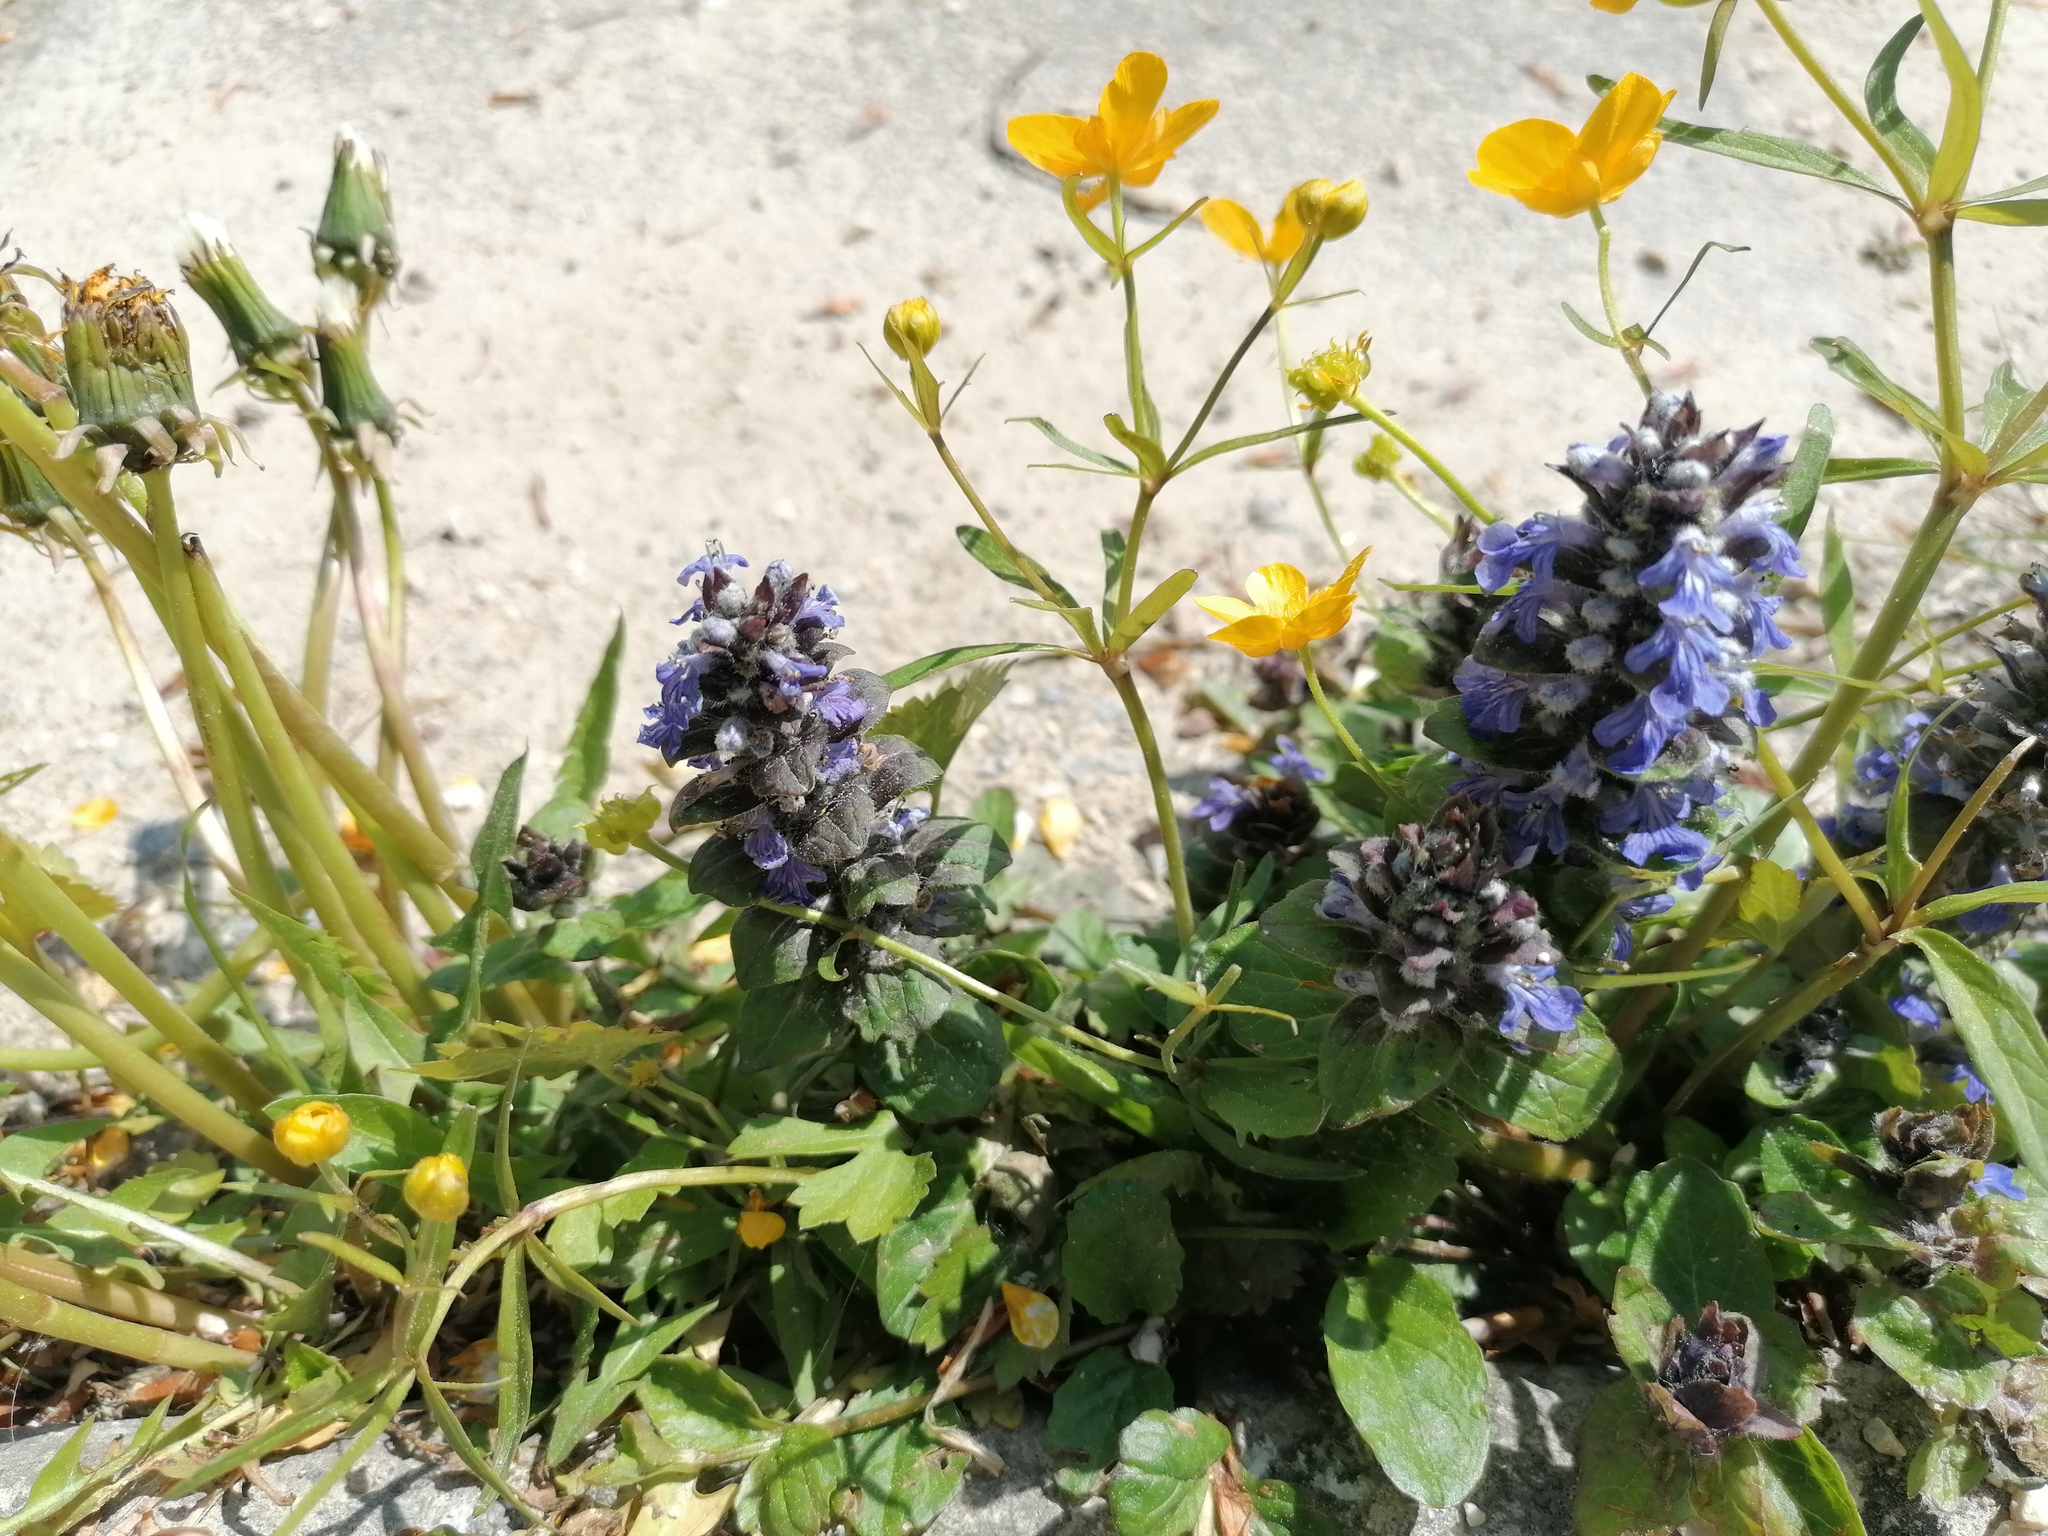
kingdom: Plantae
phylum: Tracheophyta
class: Magnoliopsida
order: Lamiales
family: Lamiaceae
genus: Ajuga
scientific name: Ajuga reptans
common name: Bugle
